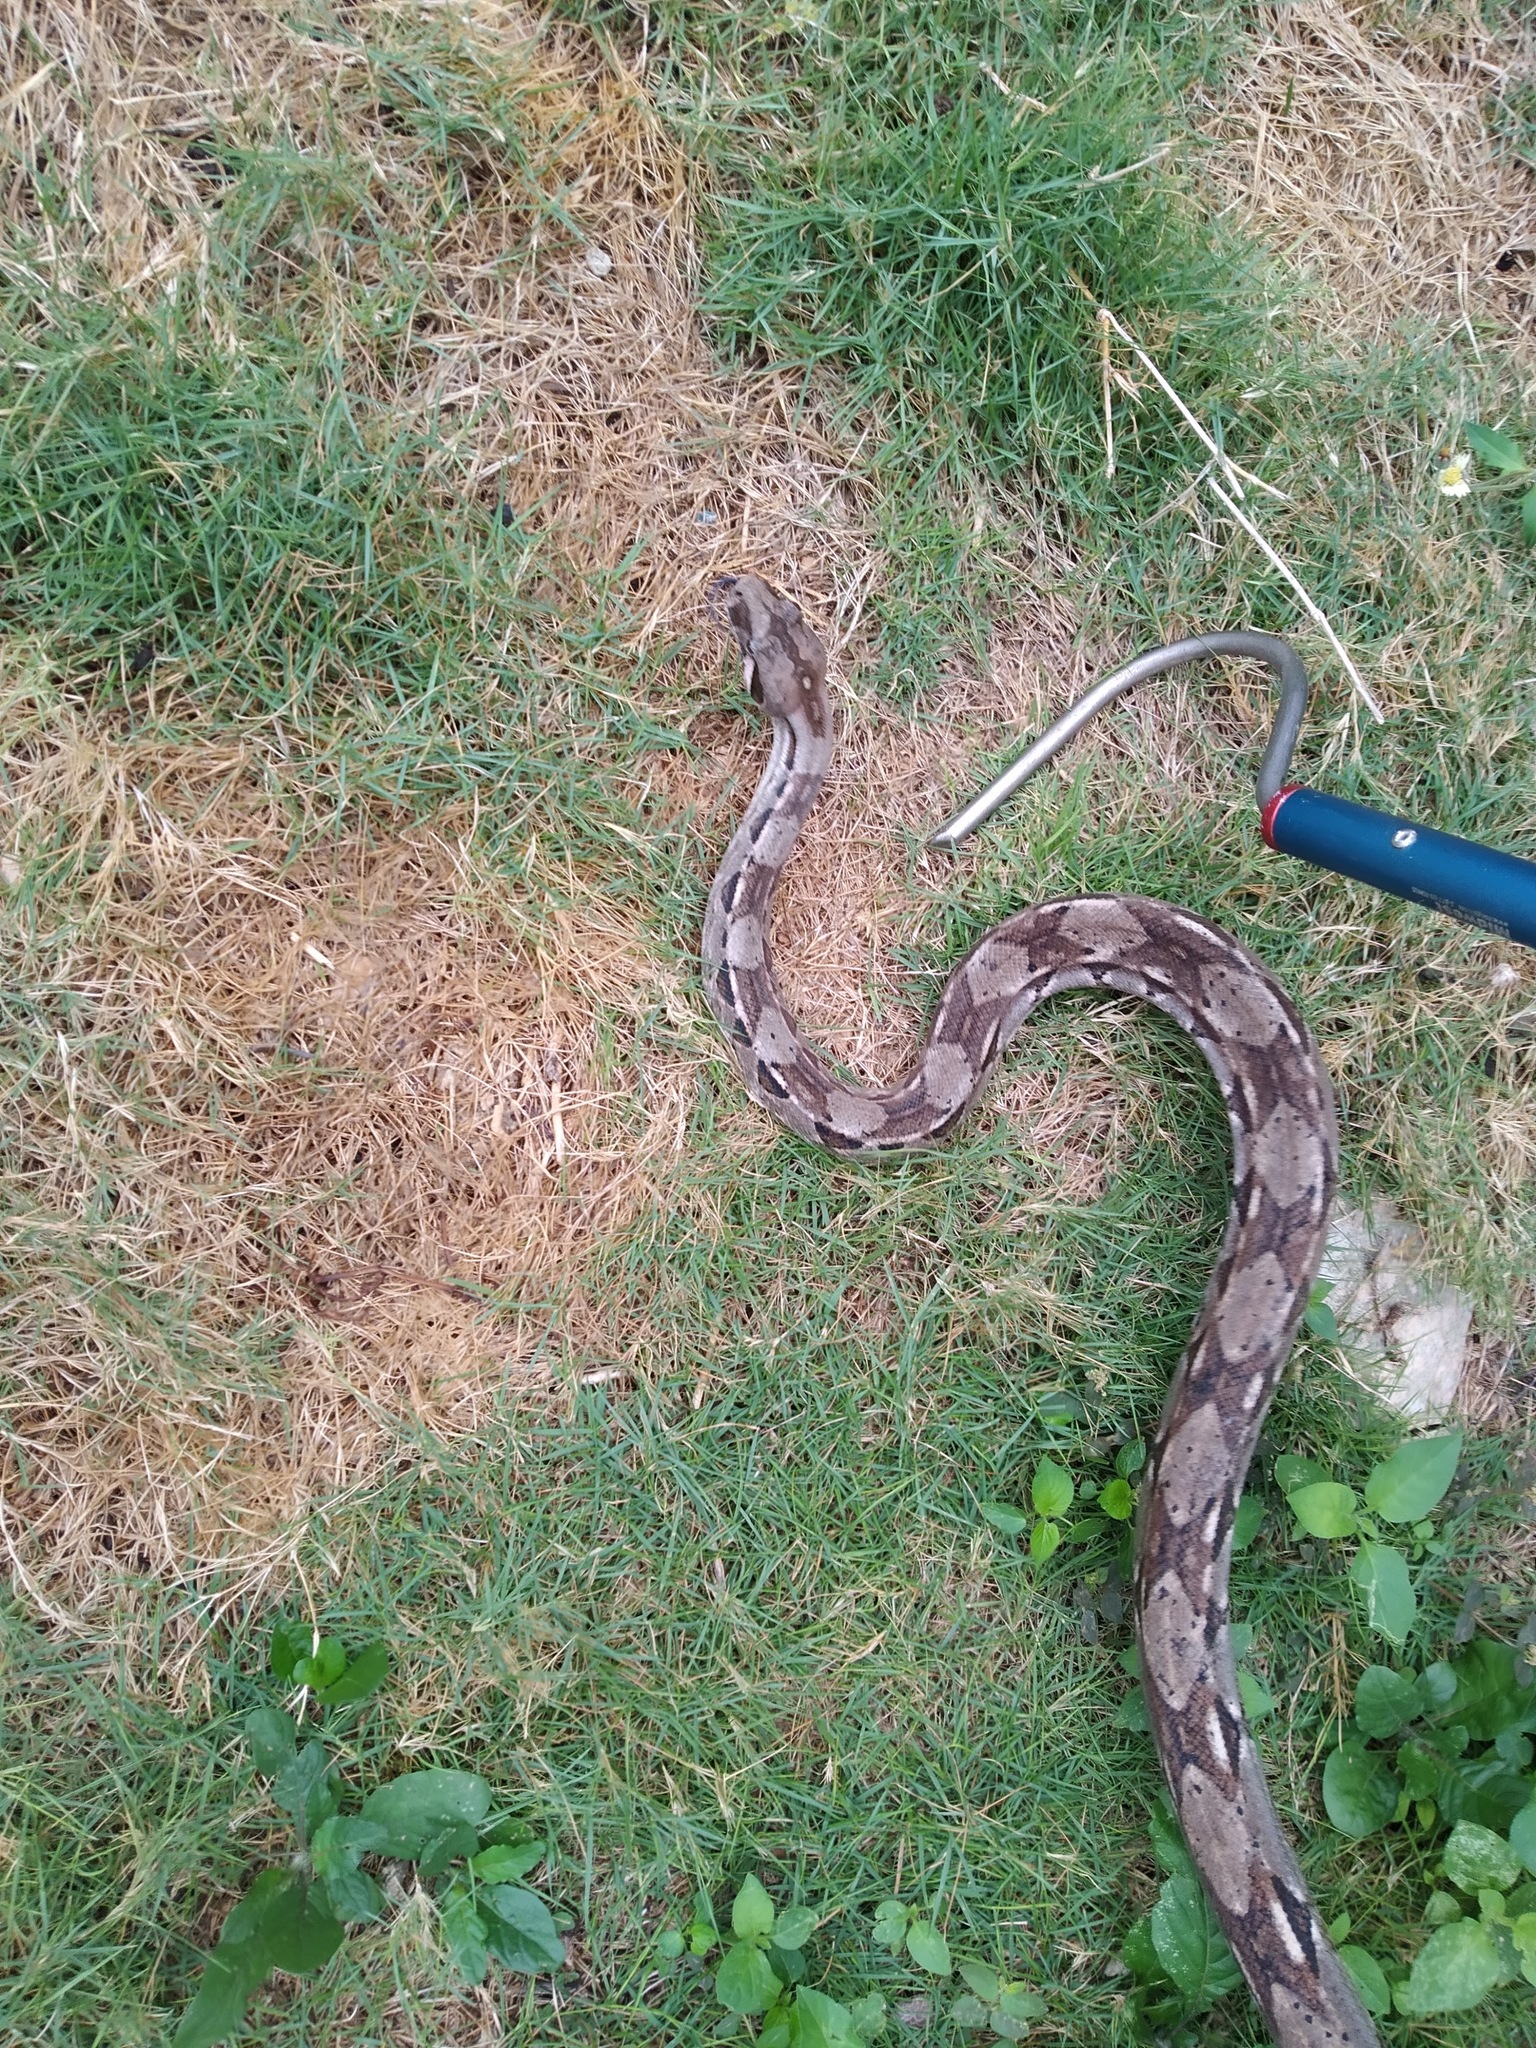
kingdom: Animalia
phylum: Chordata
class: Squamata
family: Boidae
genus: Boa
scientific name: Boa imperator
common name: Central american boa
